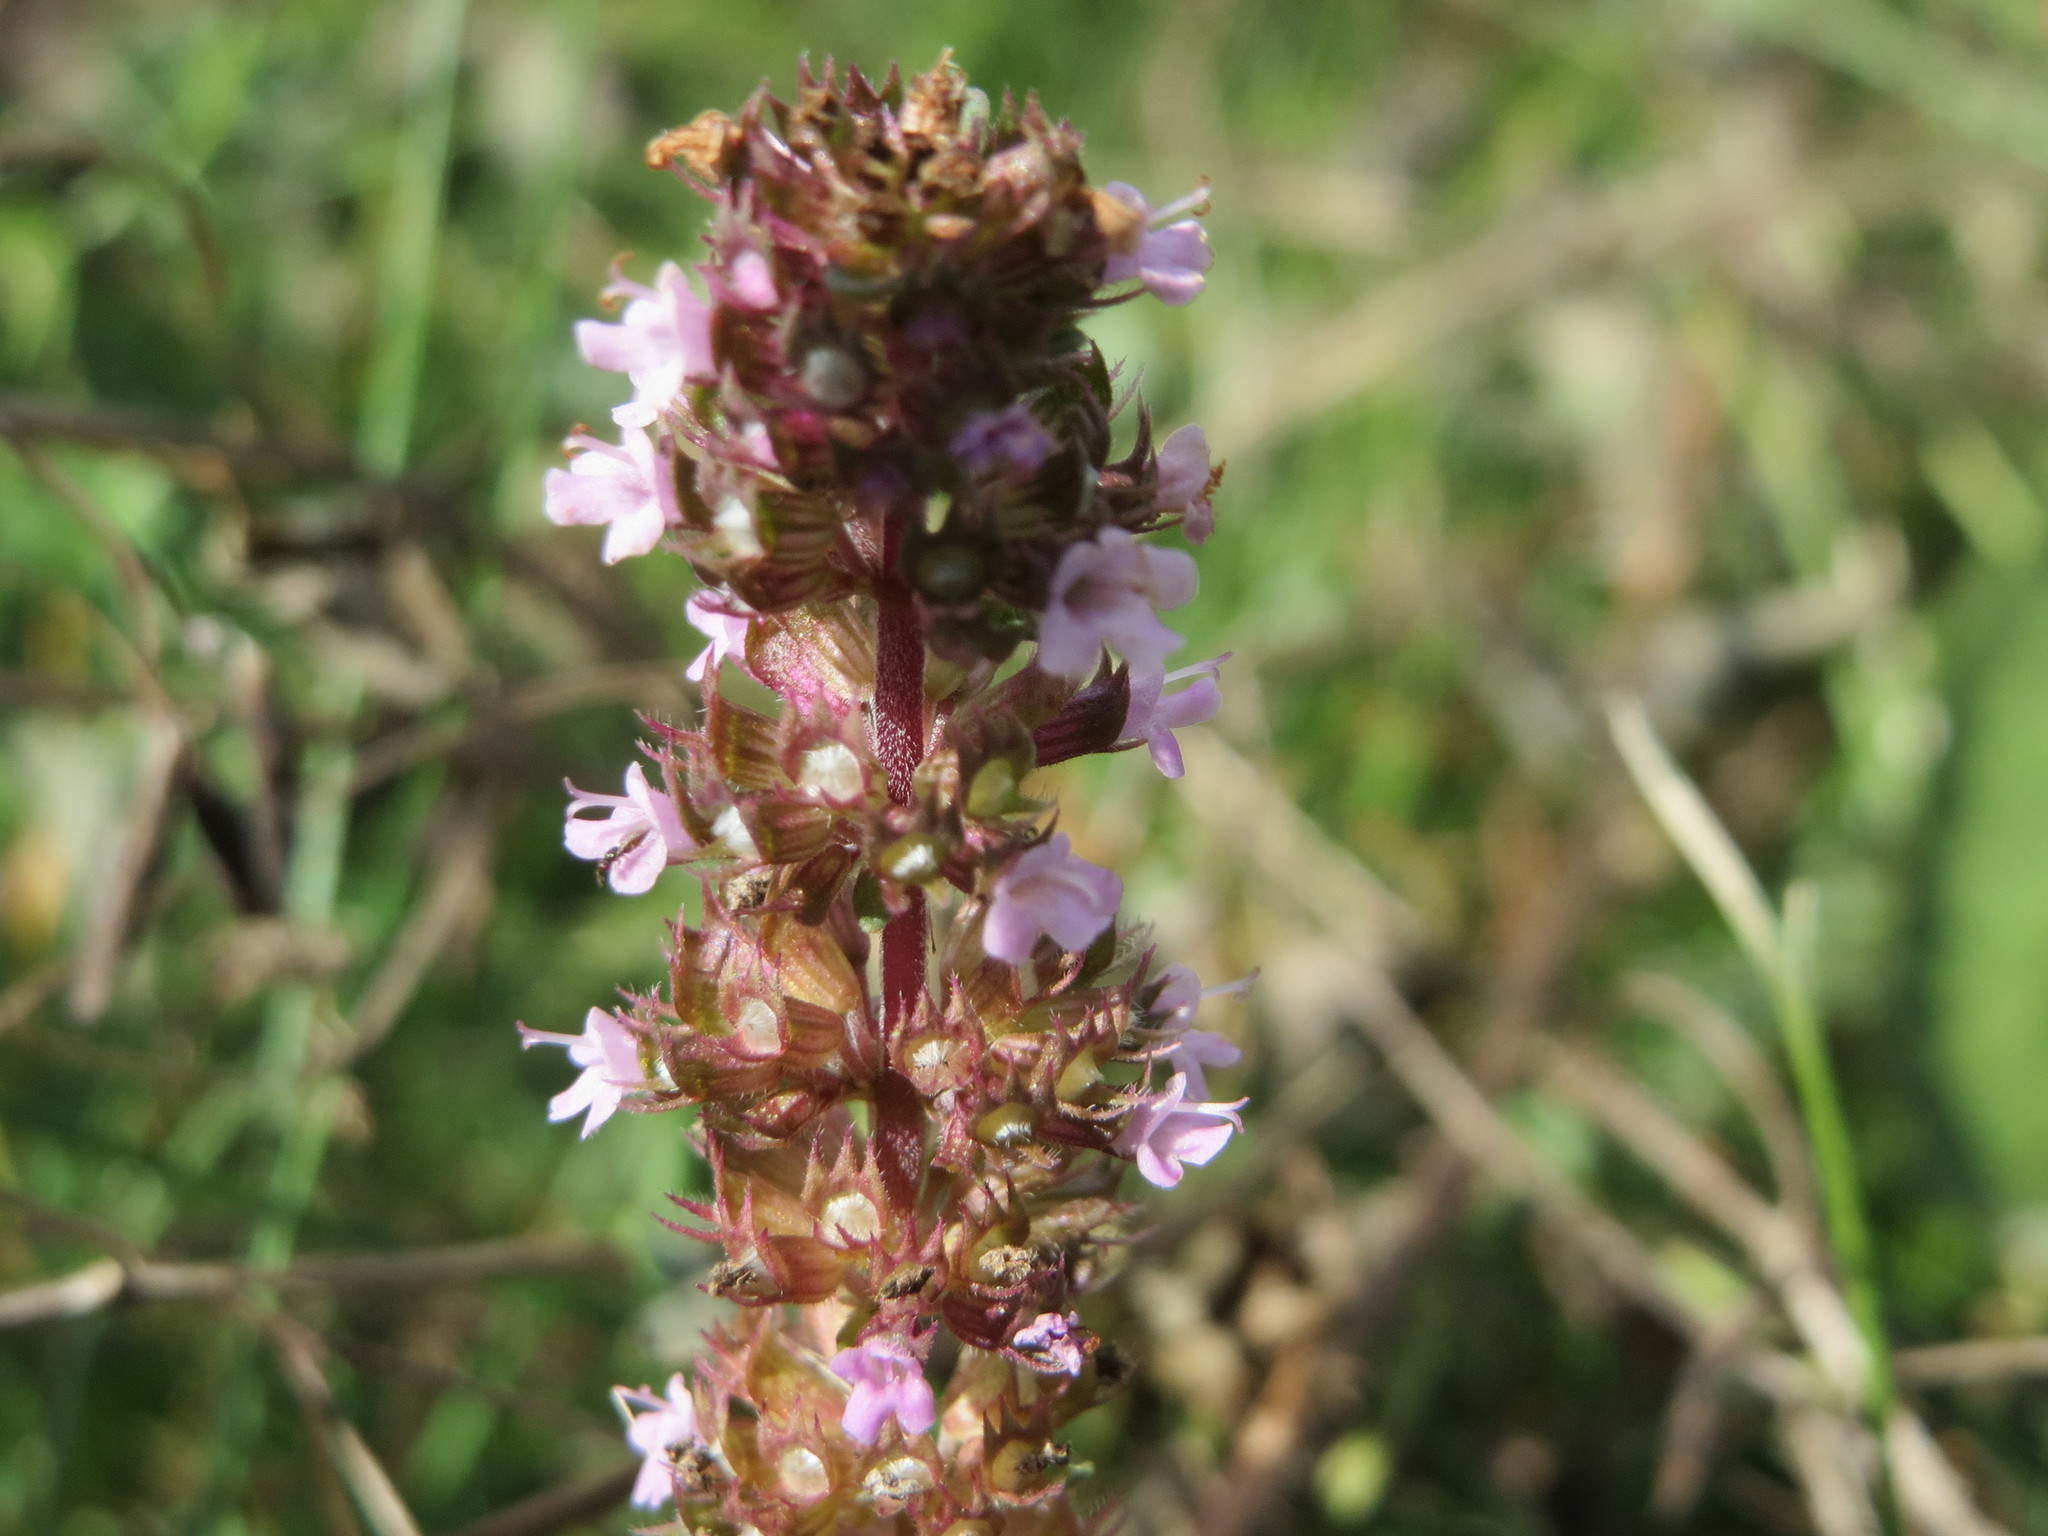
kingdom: Plantae
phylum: Tracheophyta
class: Magnoliopsida
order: Lamiales
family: Lamiaceae
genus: Thymus
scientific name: Thymus pulegioides
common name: Large thyme
